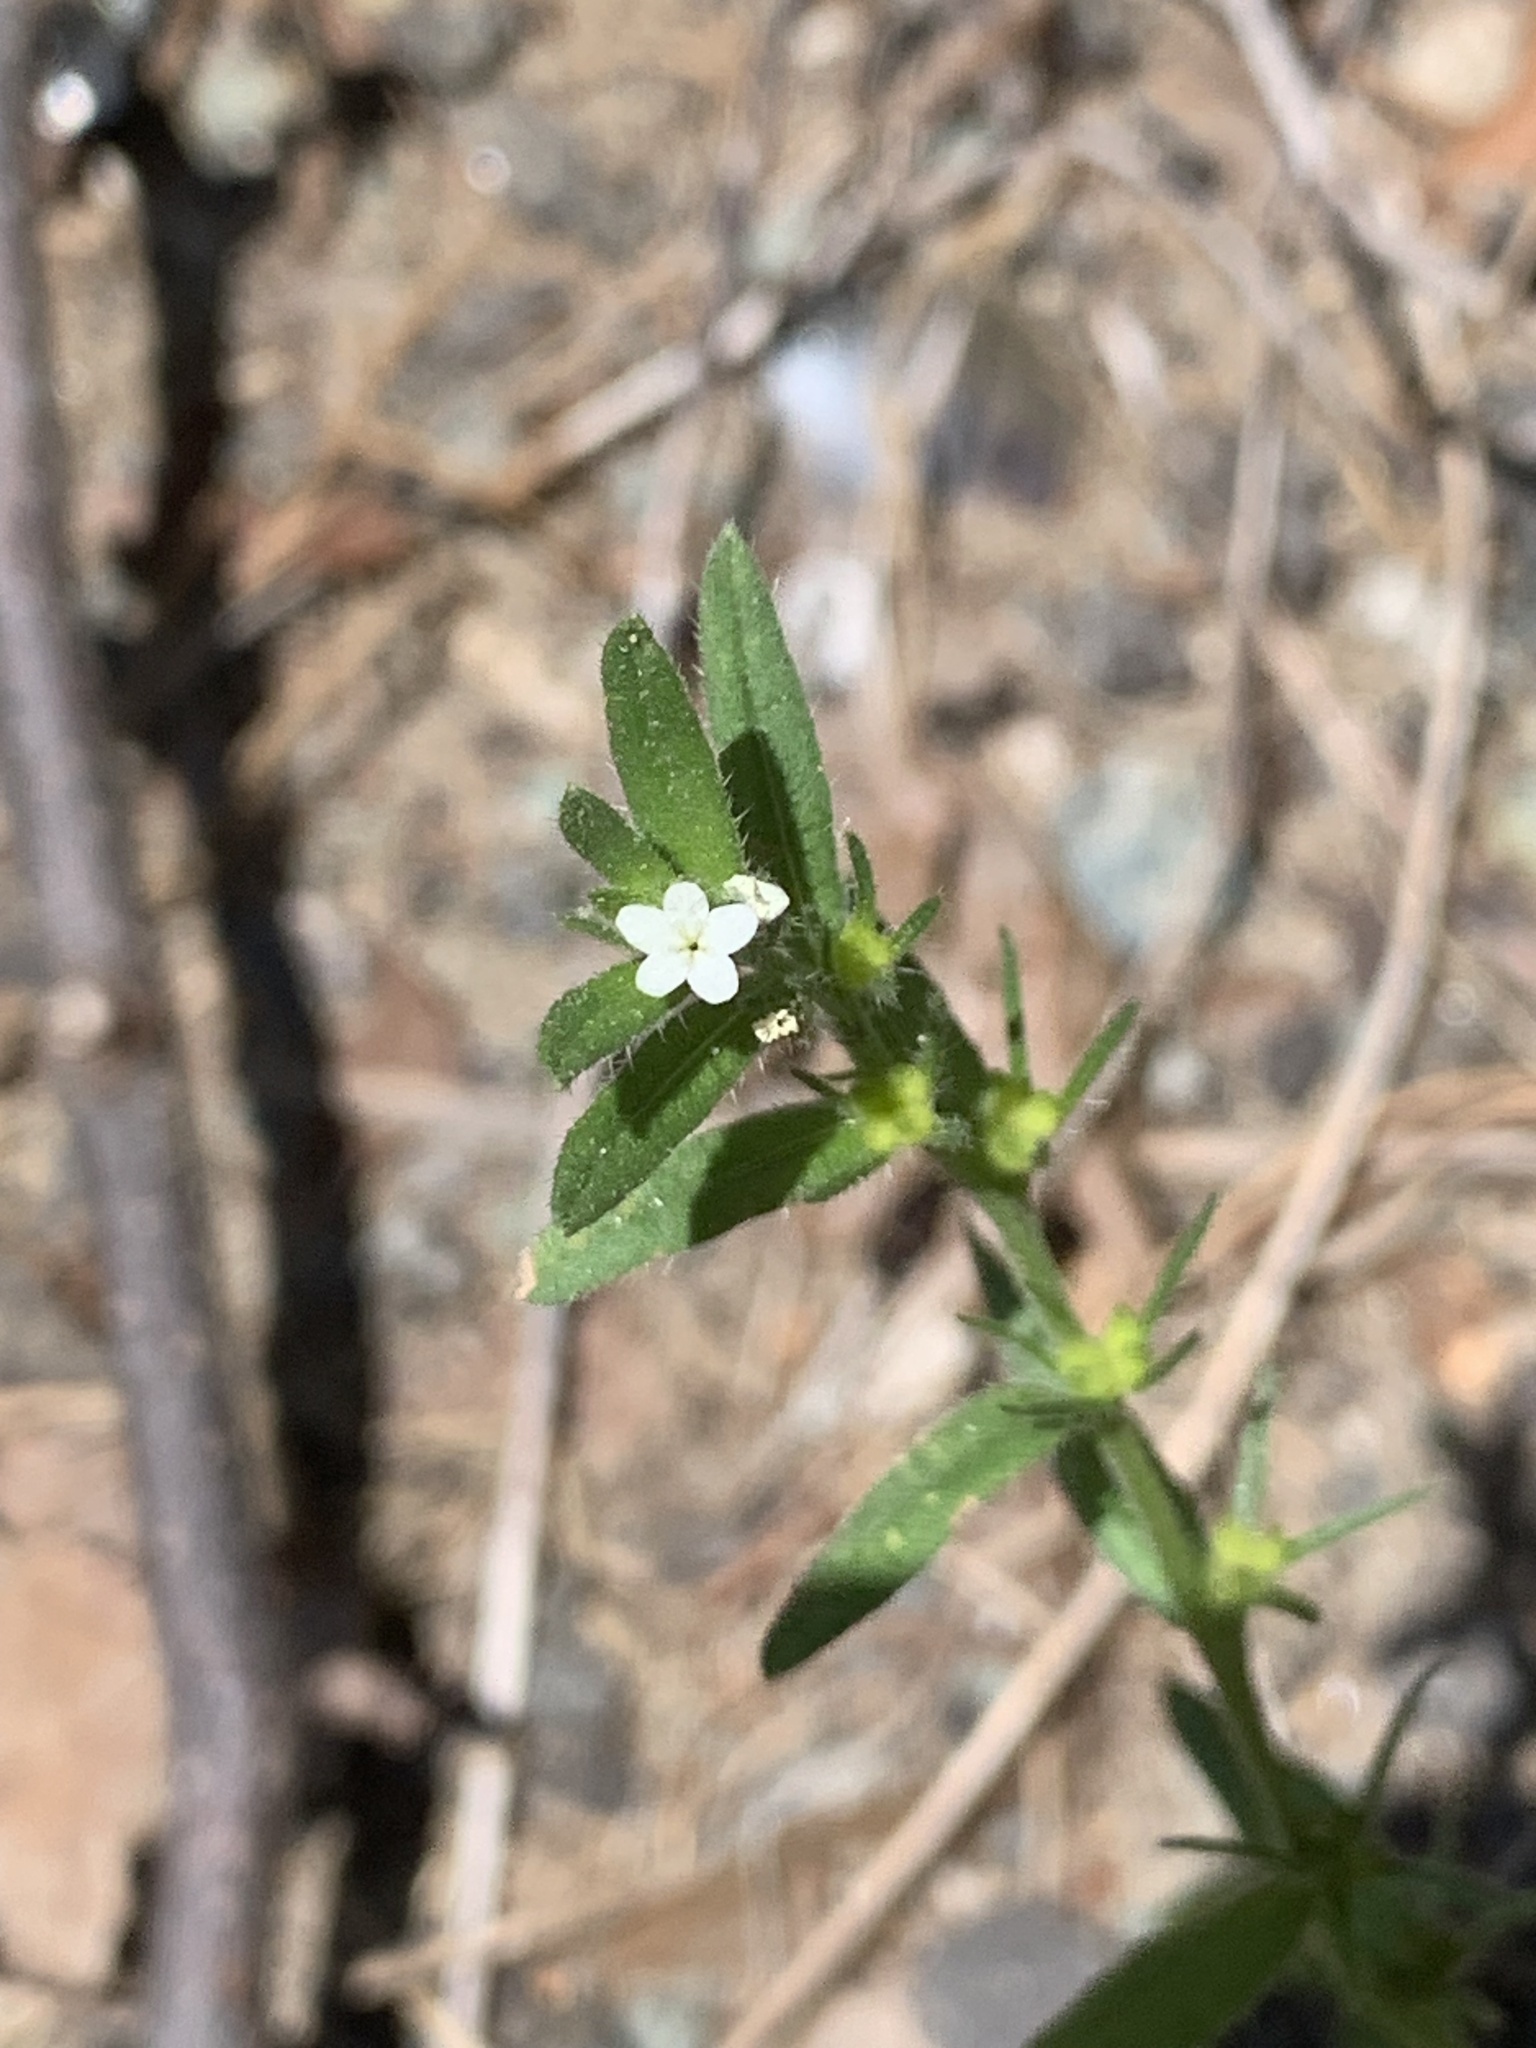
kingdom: Plantae
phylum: Tracheophyta
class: Magnoliopsida
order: Boraginales
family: Boraginaceae
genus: Buglossoides
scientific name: Buglossoides arvensis
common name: Corn gromwell
